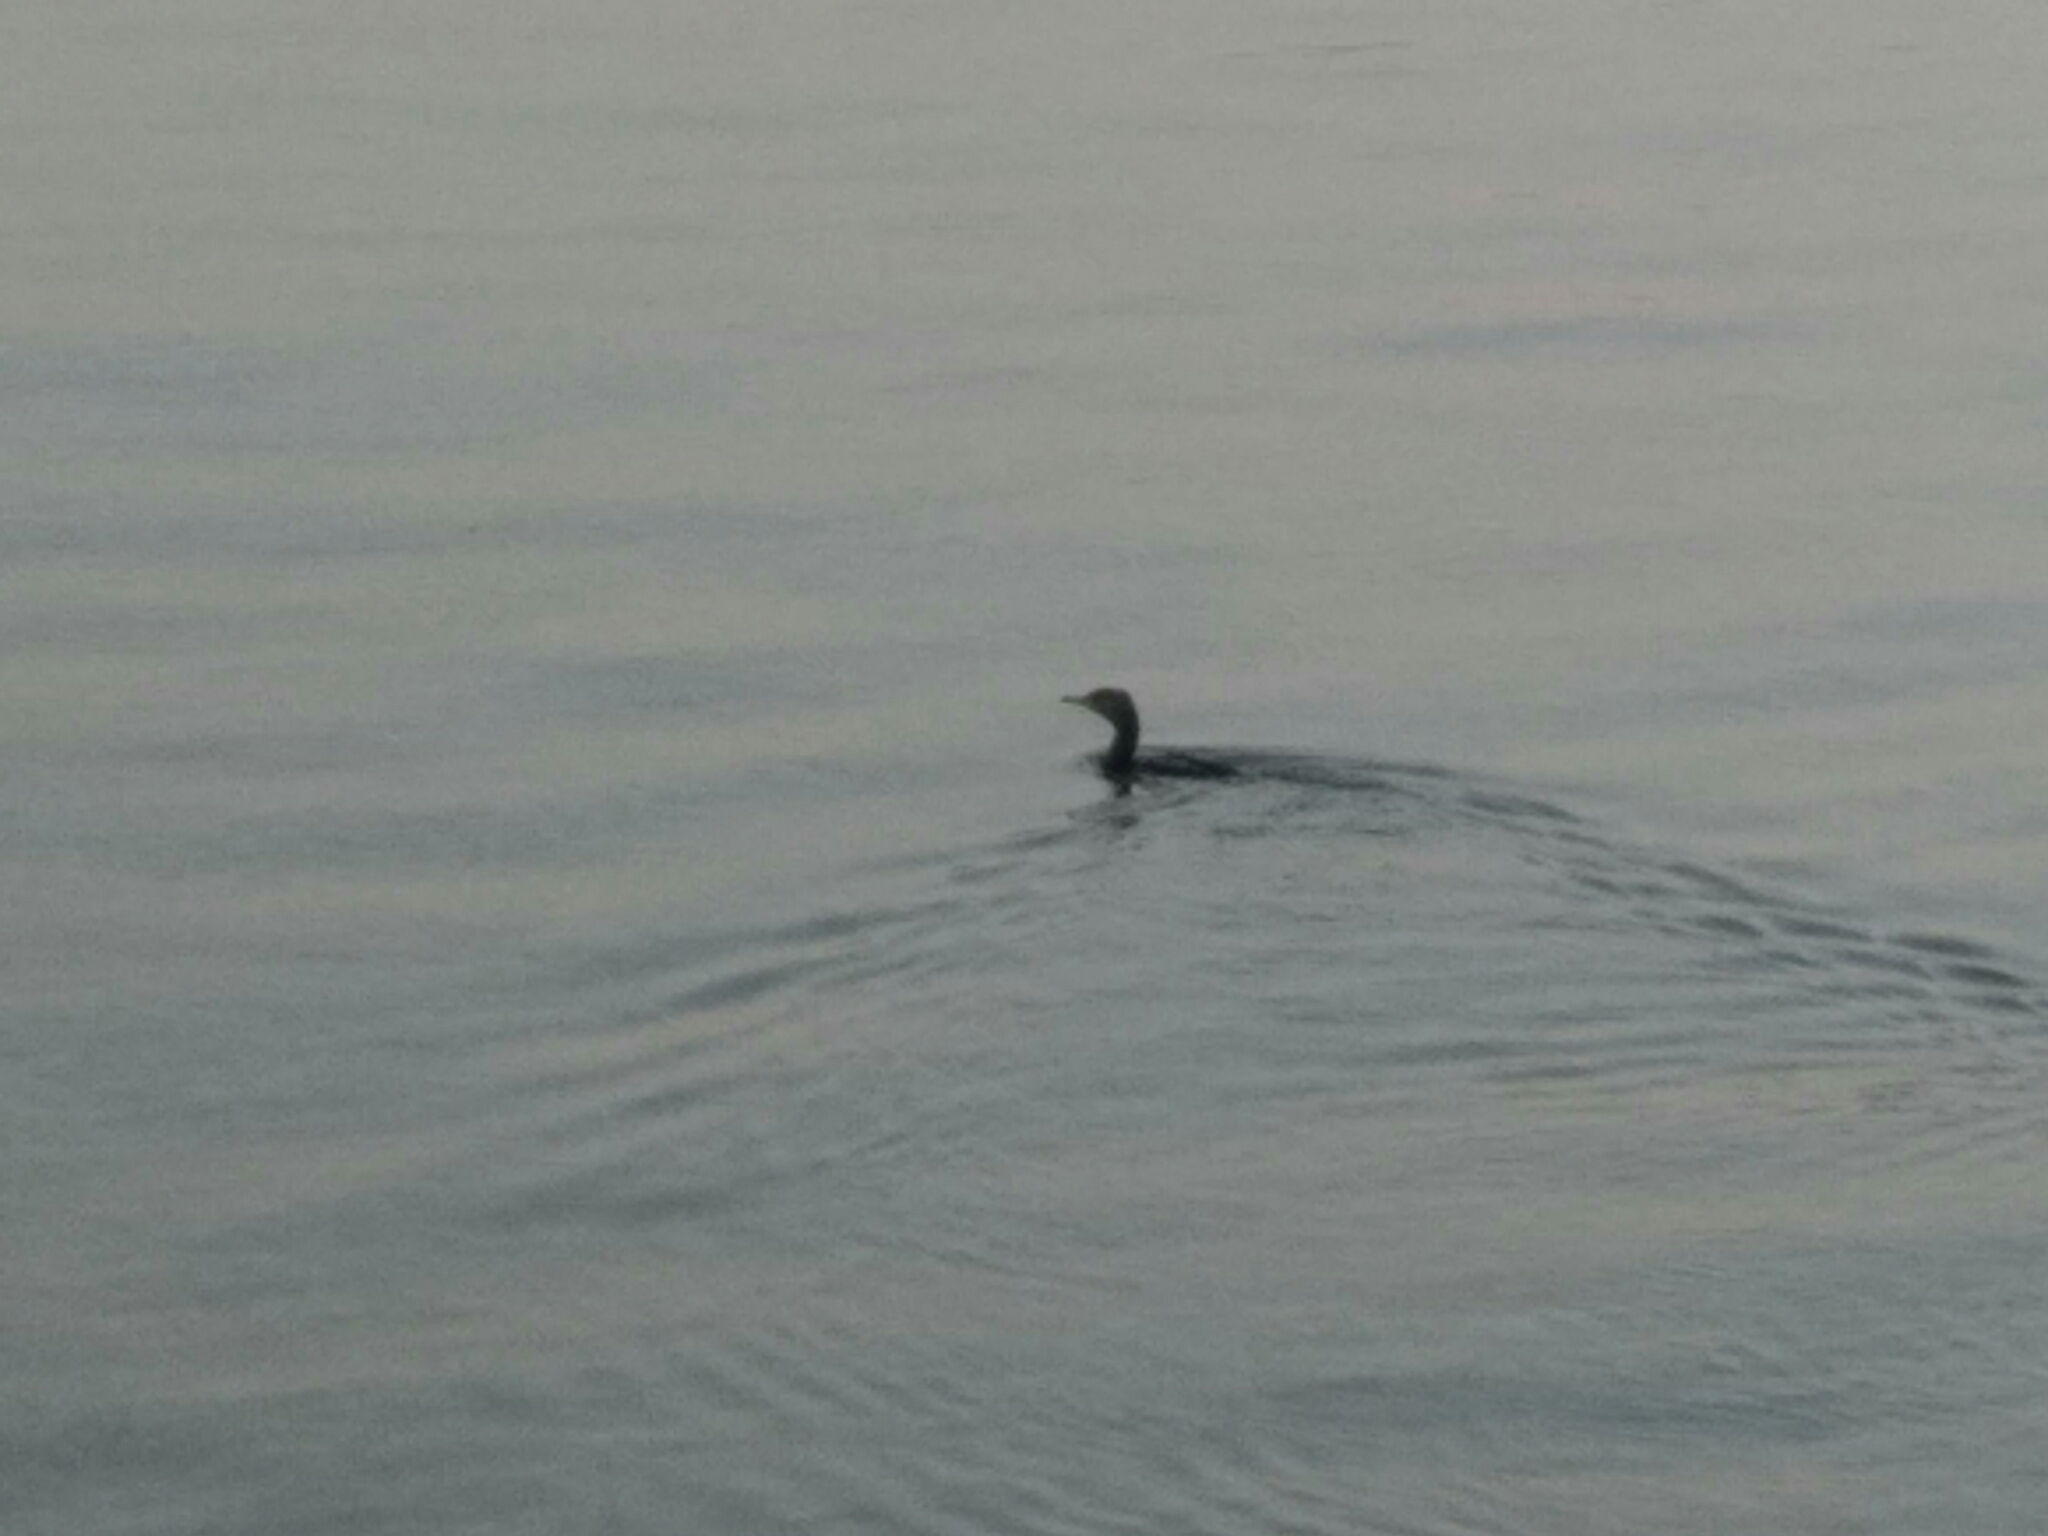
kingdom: Animalia
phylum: Chordata
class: Aves
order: Suliformes
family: Phalacrocoracidae
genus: Phalacrocorax
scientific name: Phalacrocorax carbo
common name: Great cormorant
